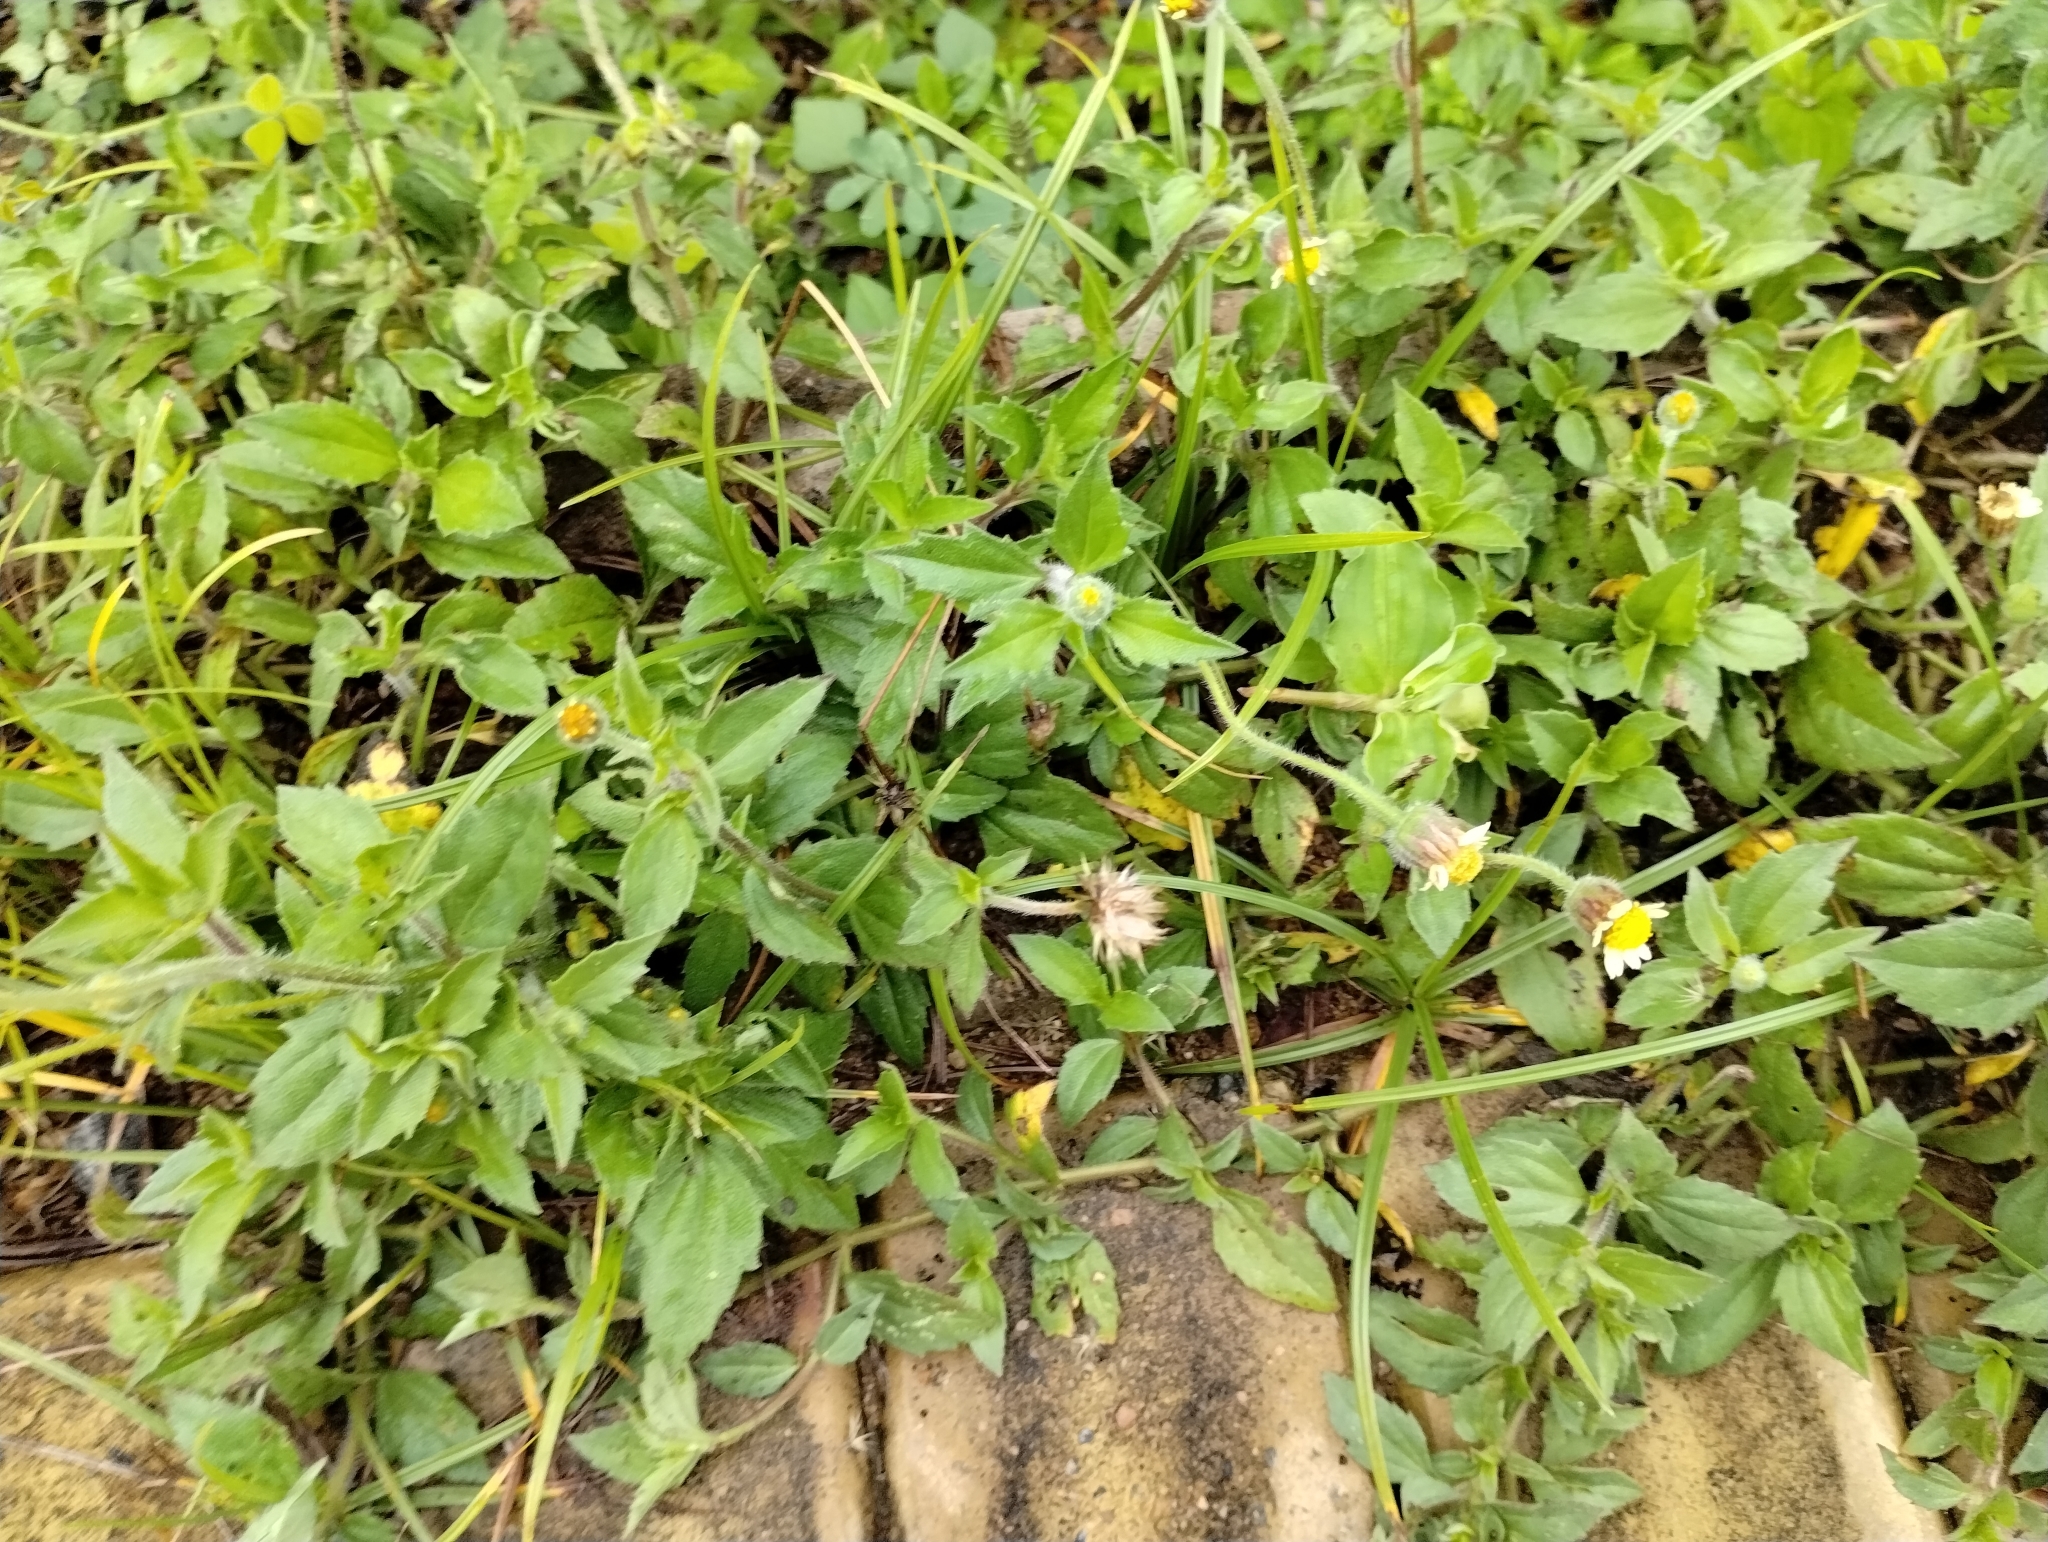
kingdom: Plantae
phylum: Tracheophyta
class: Magnoliopsida
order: Asterales
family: Asteraceae
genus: Tridax
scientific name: Tridax procumbens
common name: Coatbuttons
